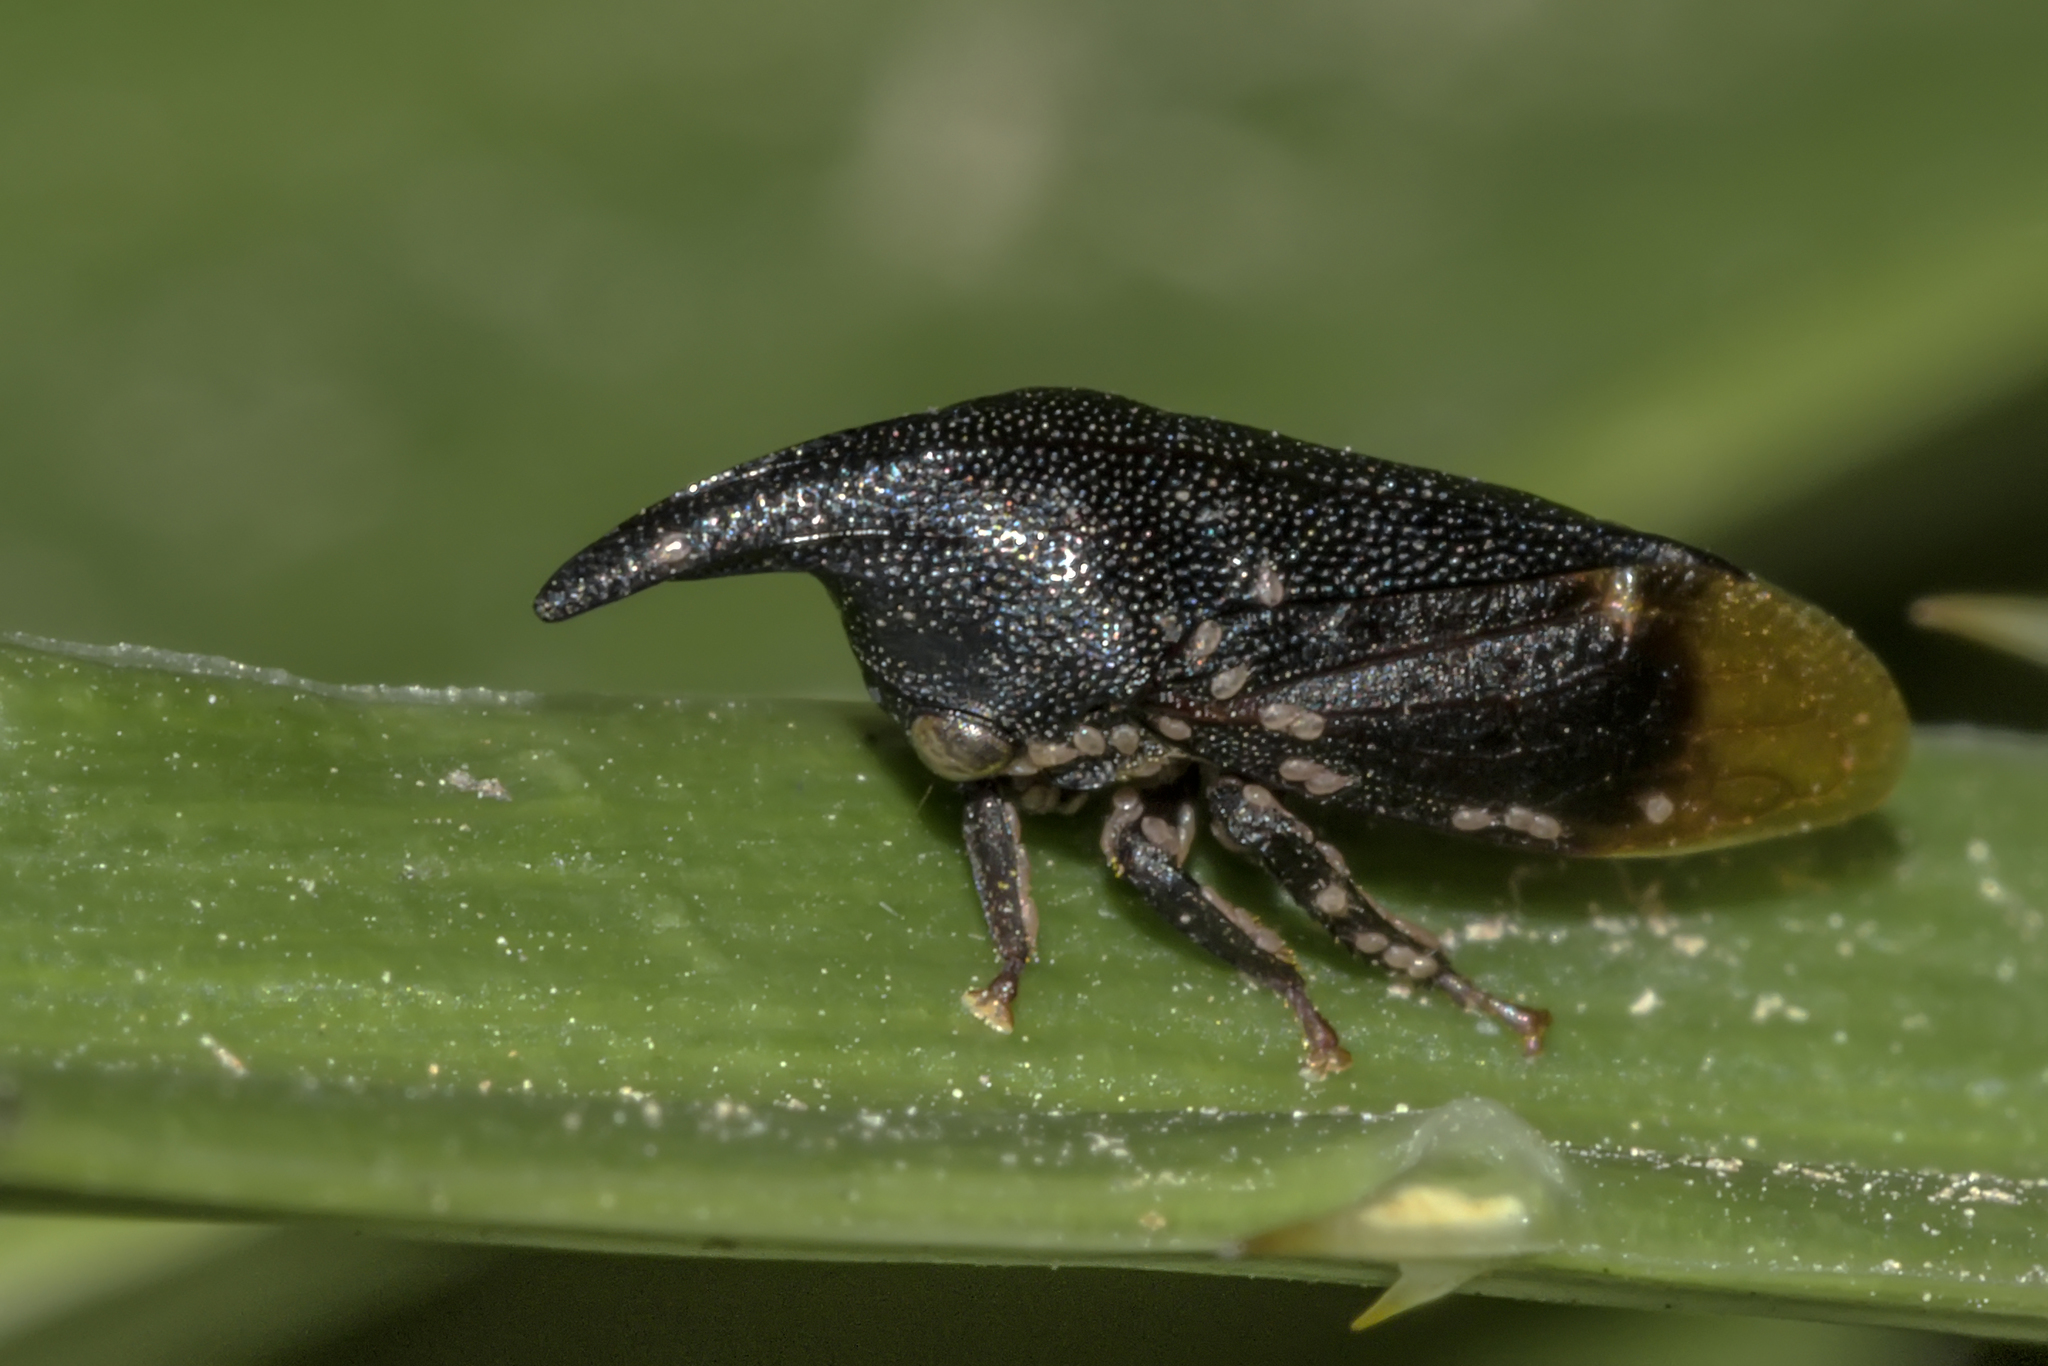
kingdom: Animalia
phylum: Arthropoda
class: Insecta
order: Hemiptera
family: Membracidae
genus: Kronides
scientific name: Kronides incumbens
